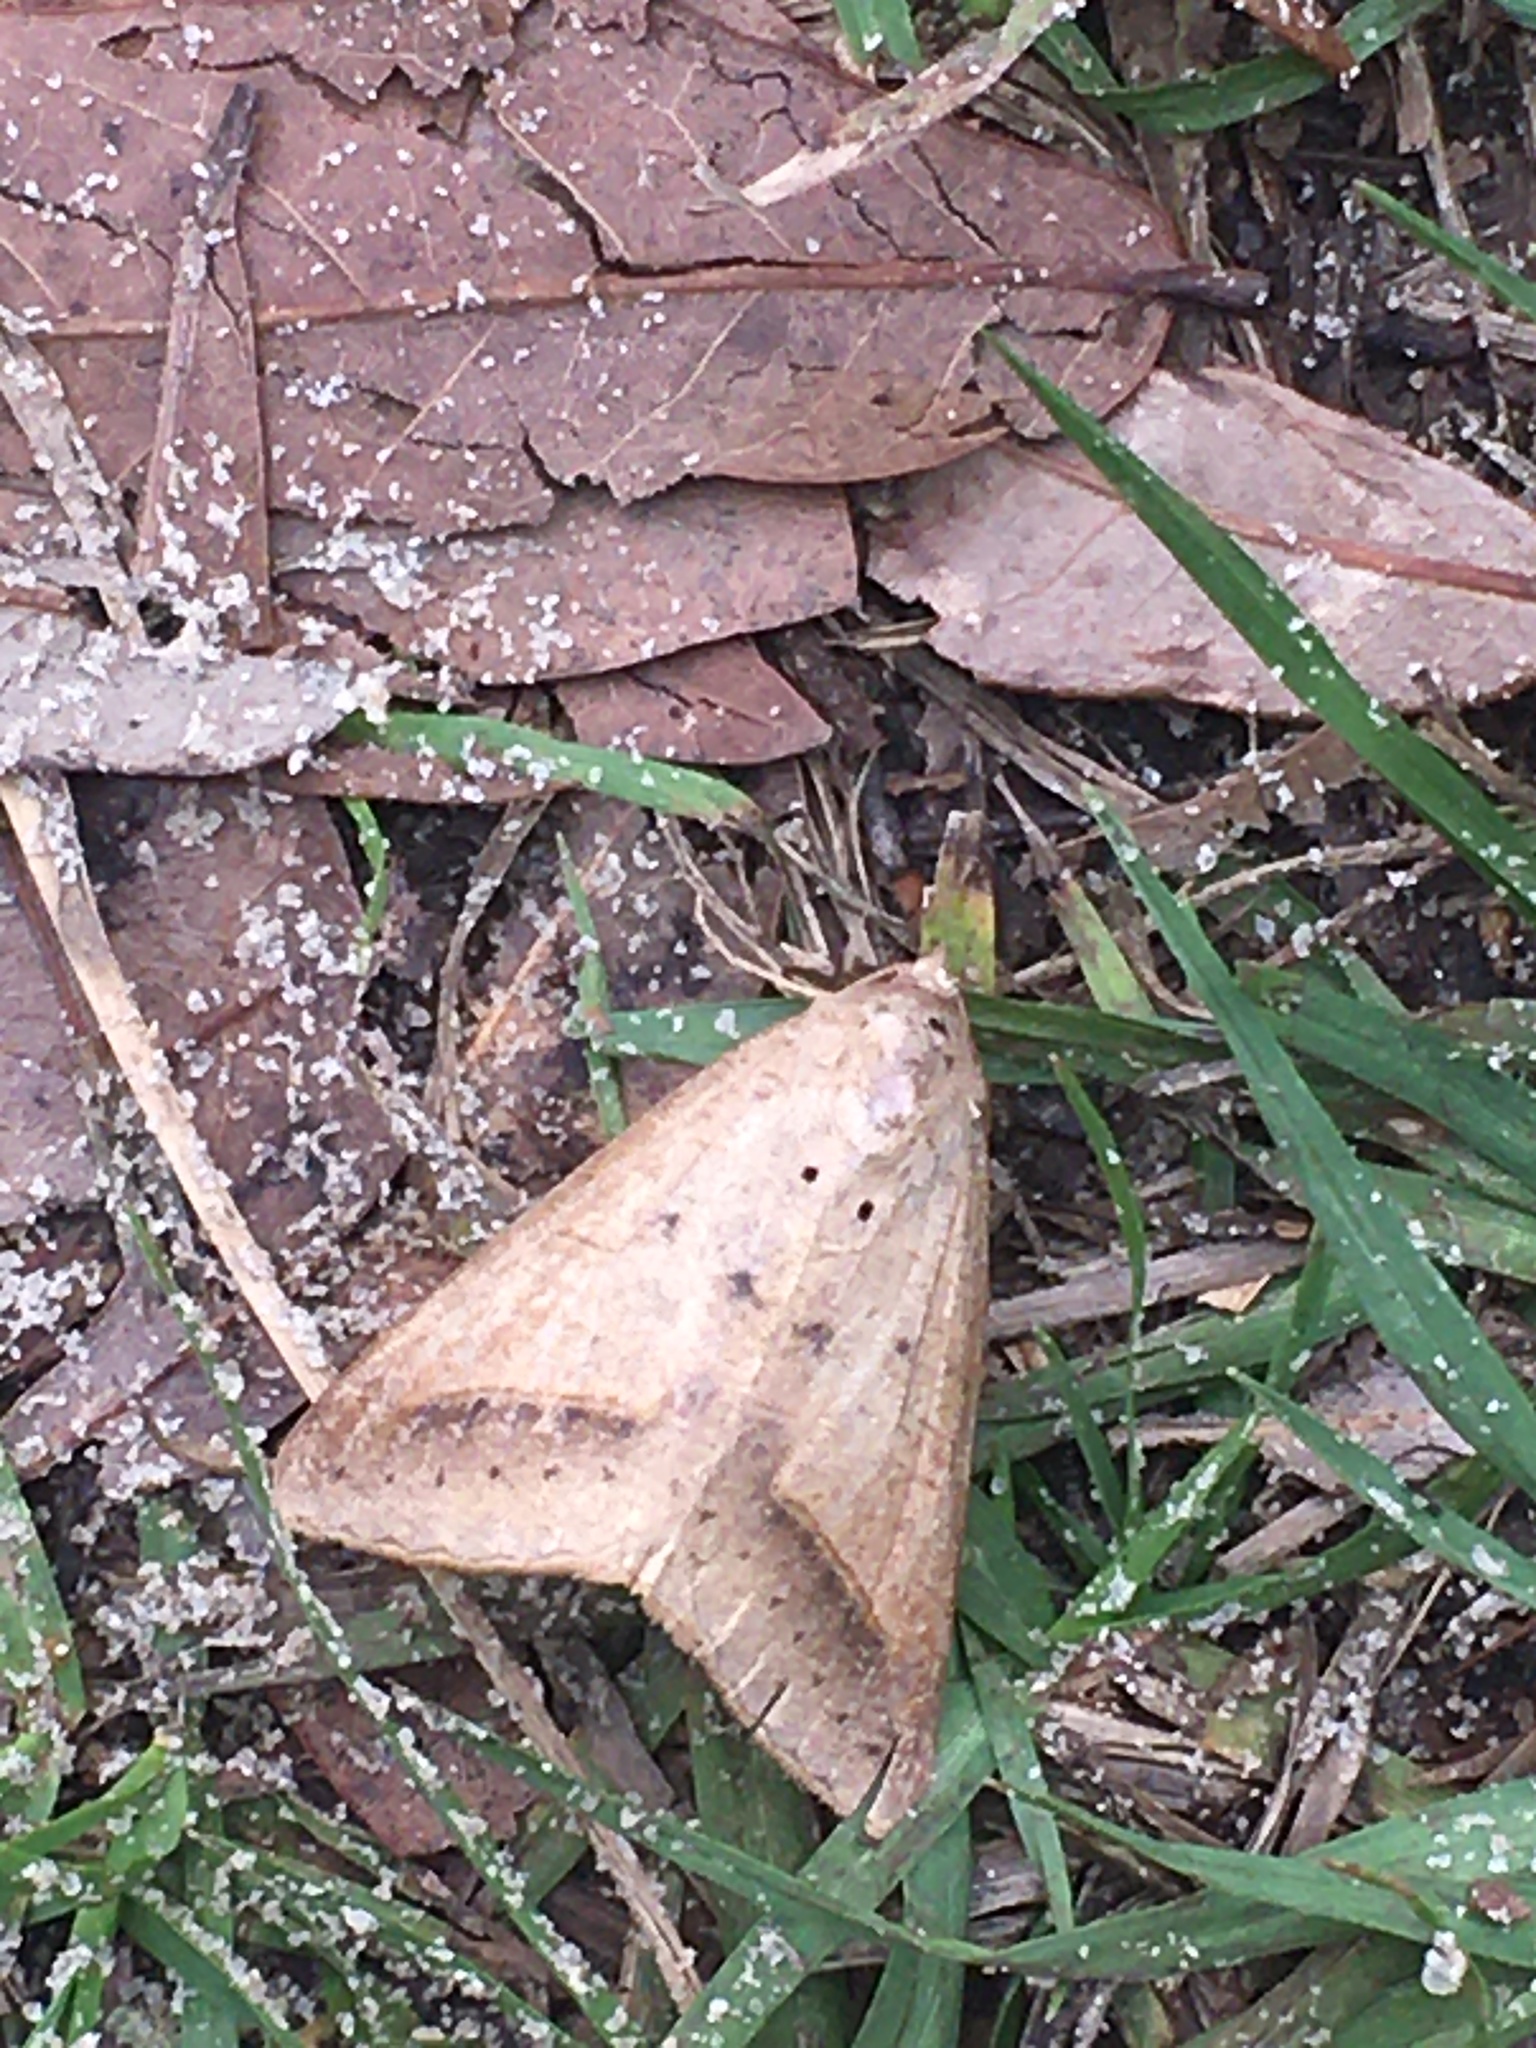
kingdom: Animalia
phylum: Arthropoda
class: Insecta
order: Lepidoptera
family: Erebidae
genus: Mocis
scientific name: Mocis marcida
